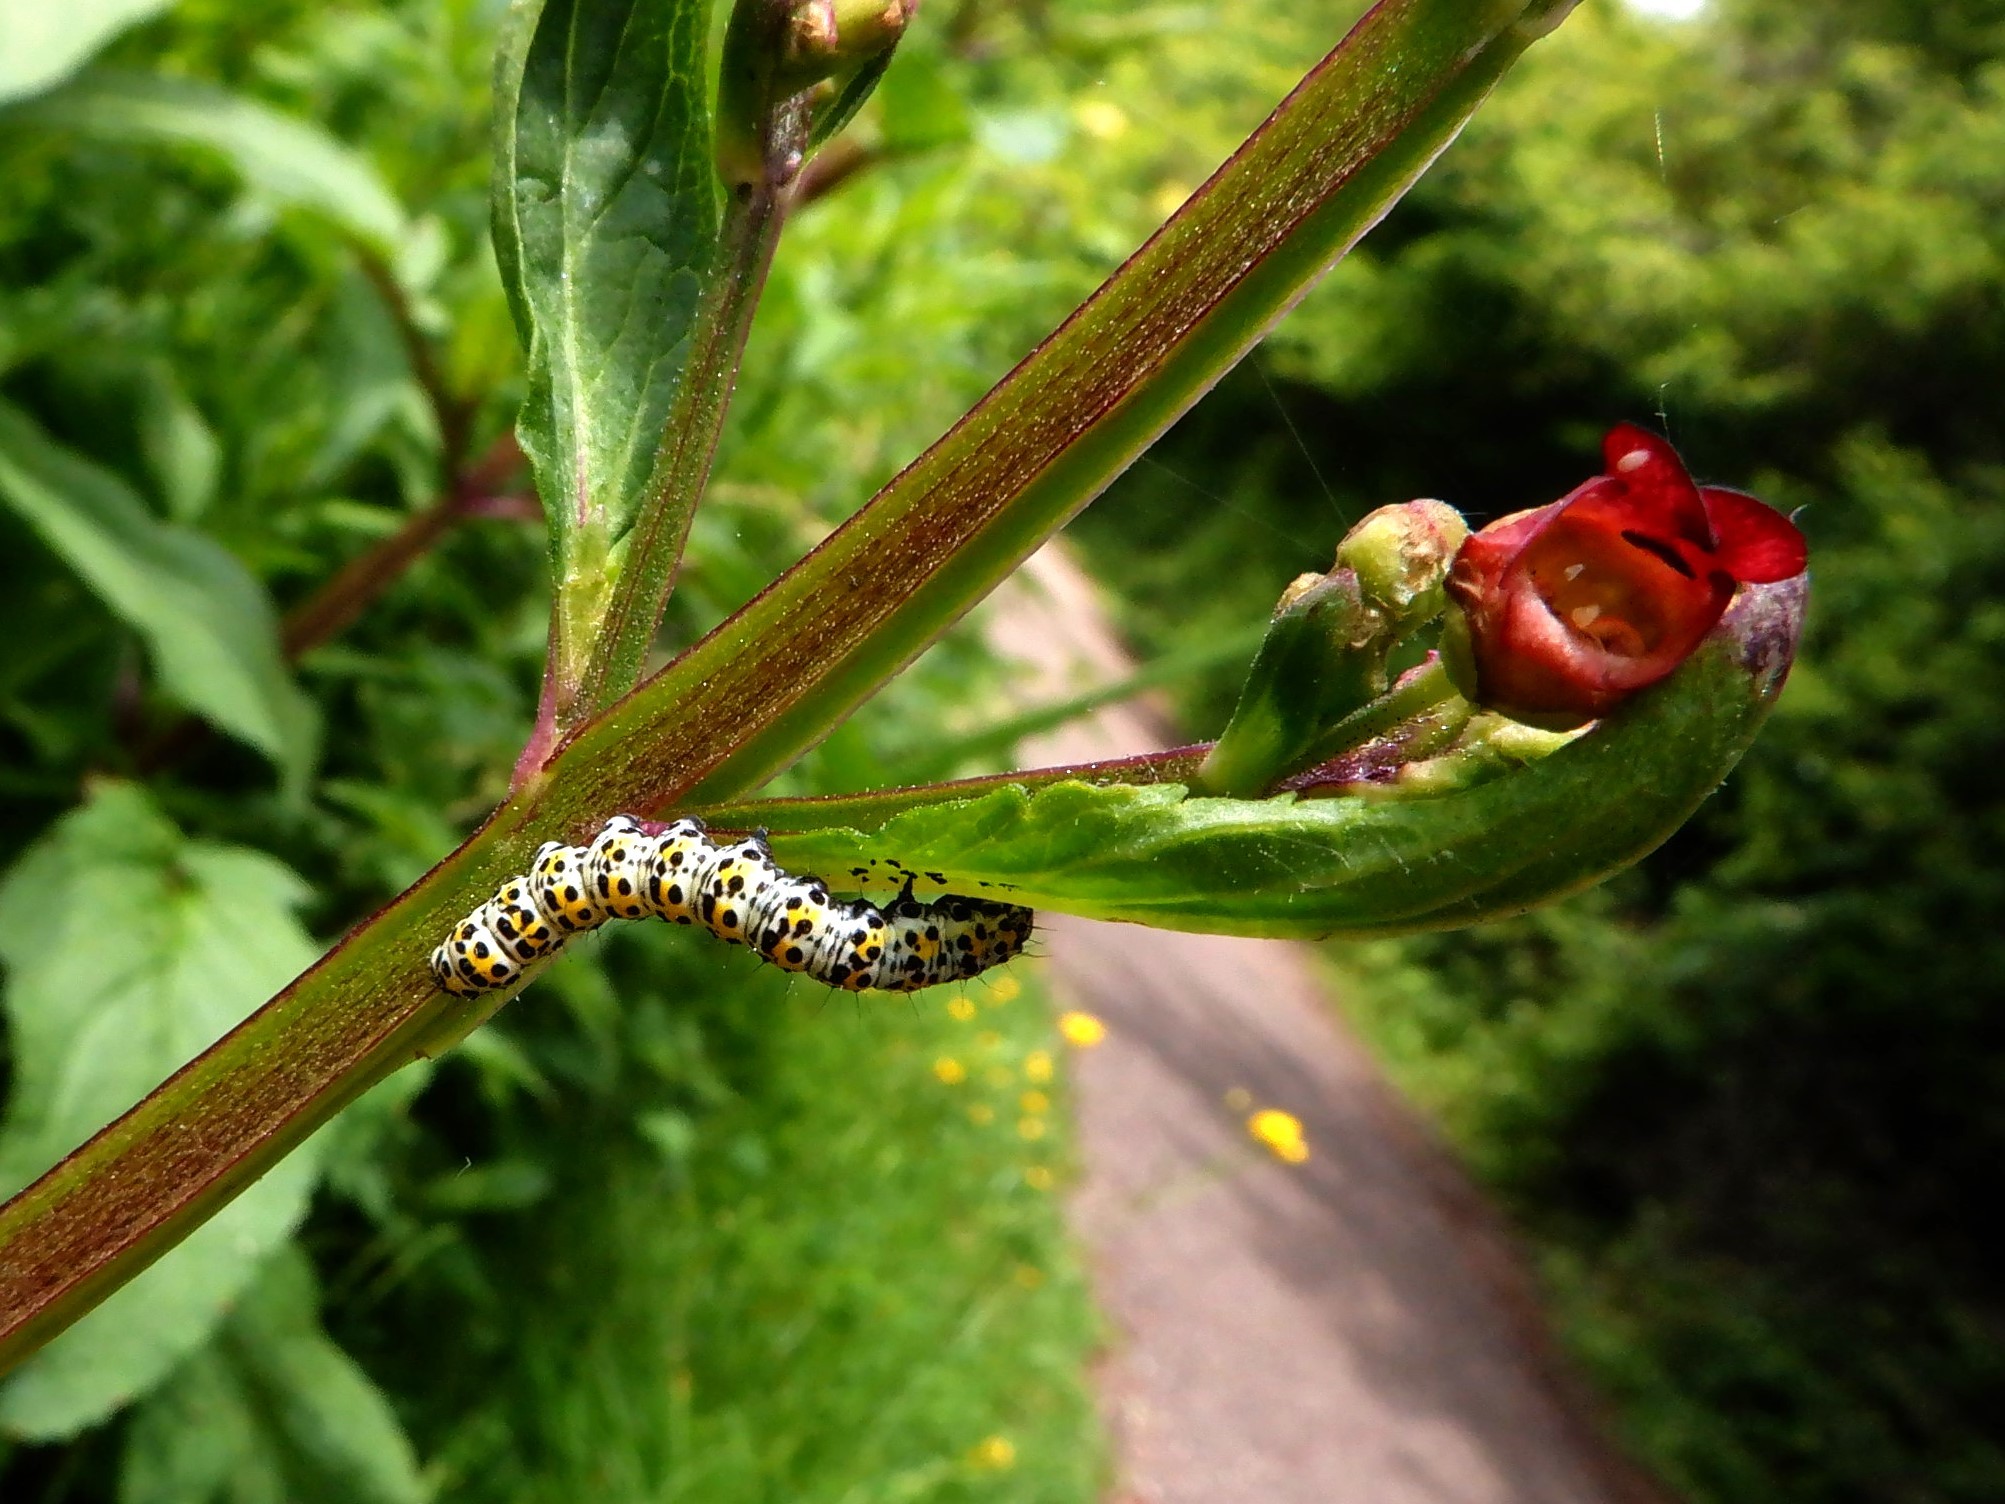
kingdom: Animalia
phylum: Arthropoda
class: Insecta
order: Lepidoptera
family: Noctuidae
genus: Cucullia
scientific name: Cucullia verbasci
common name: Mullein
